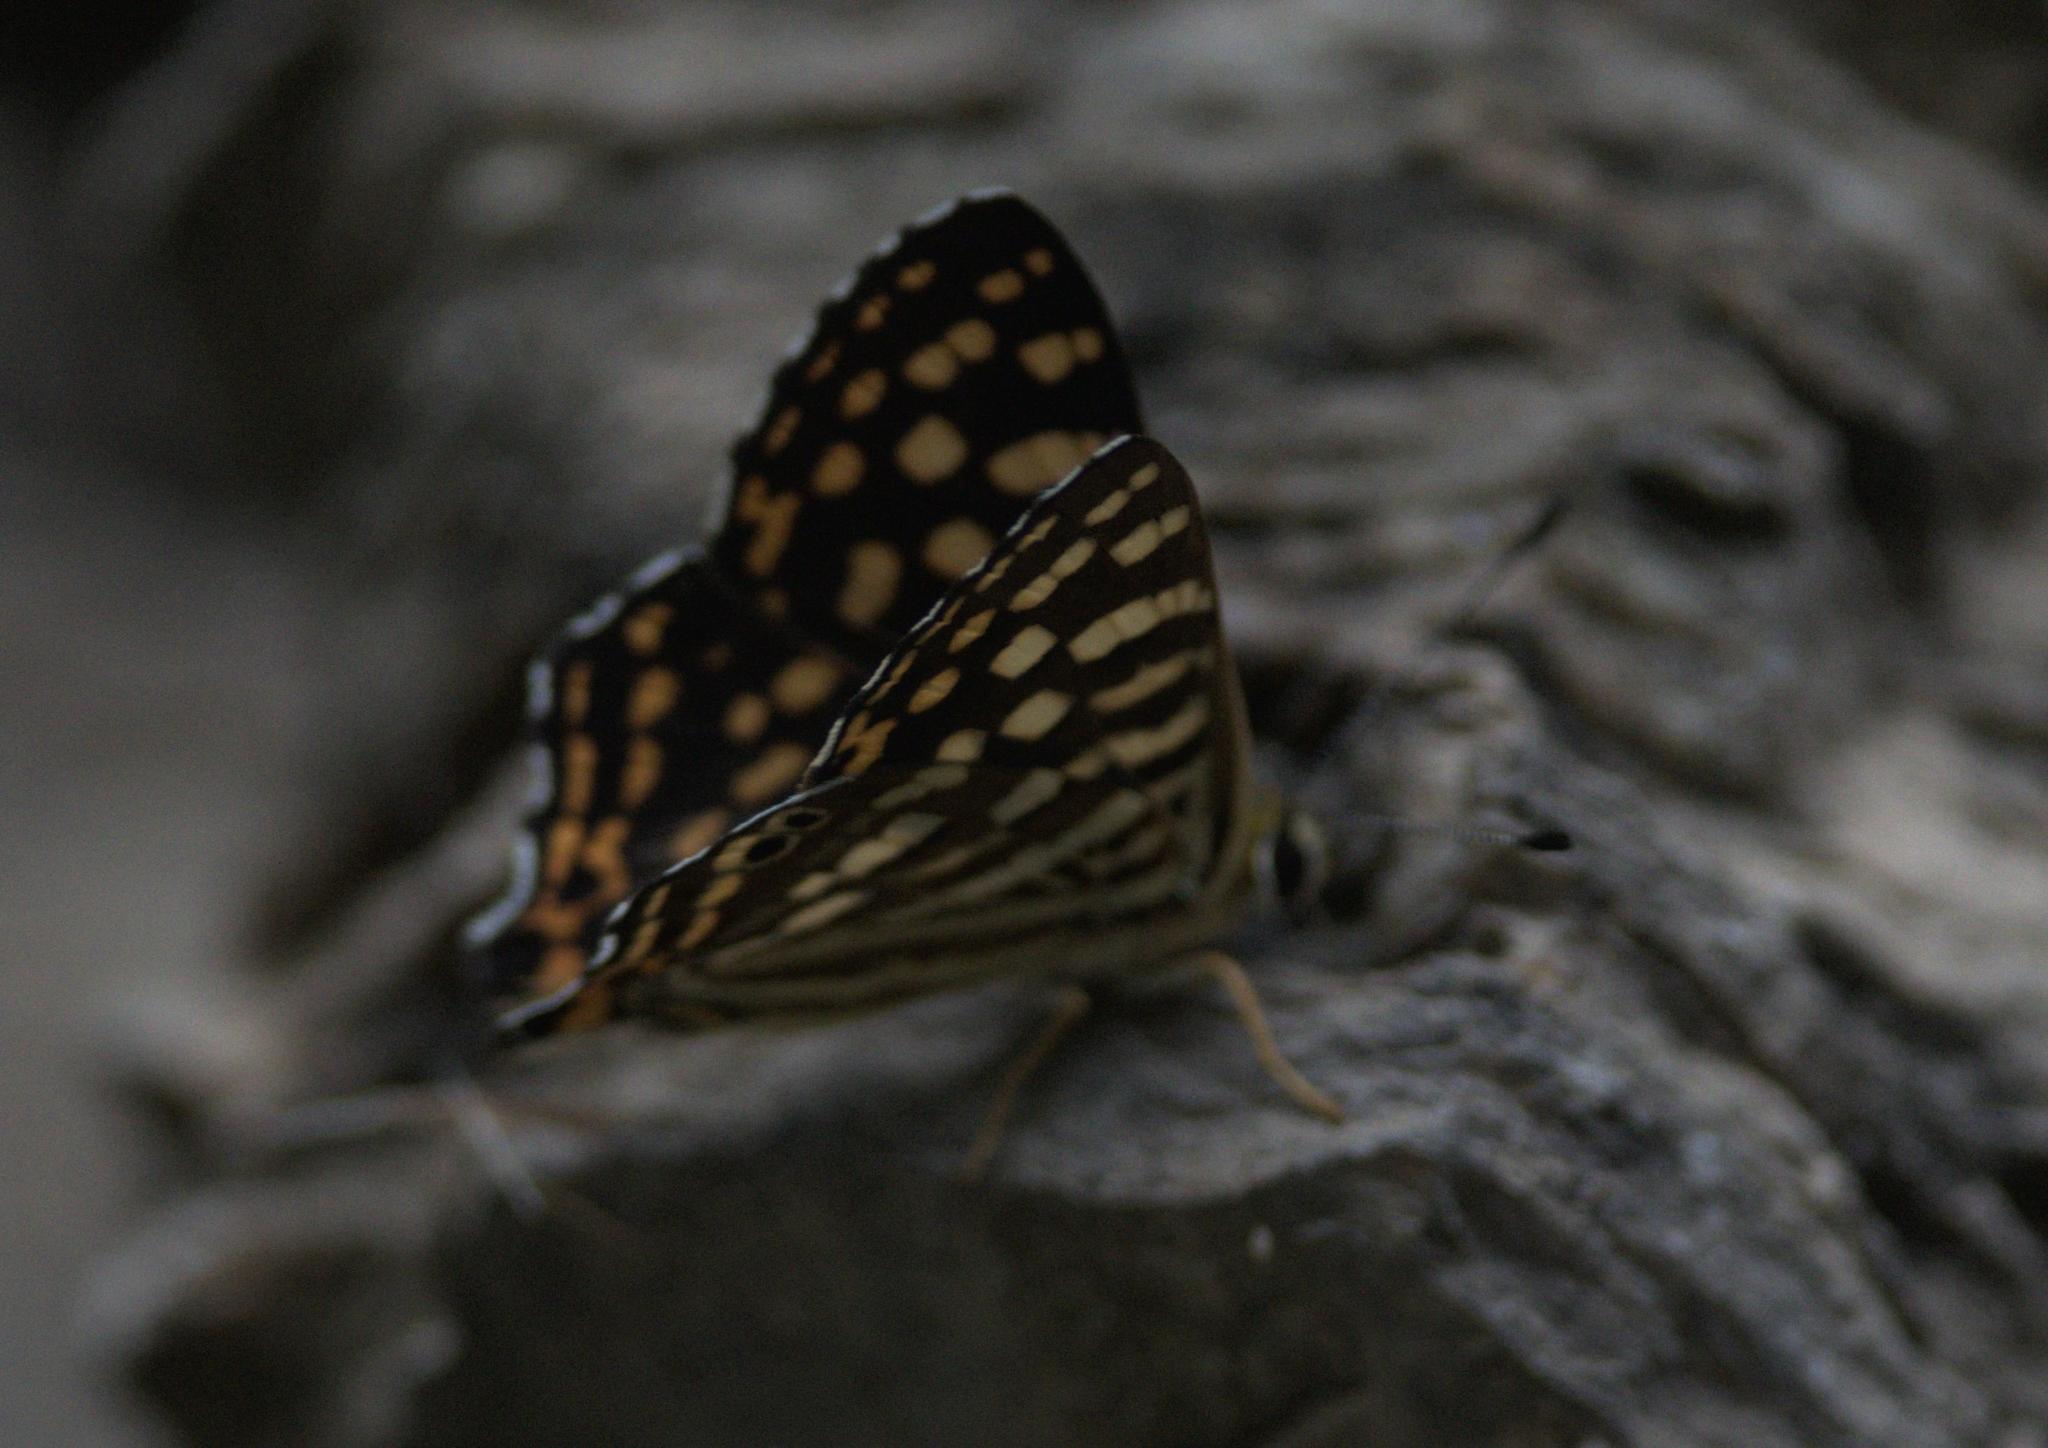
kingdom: Animalia
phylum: Arthropoda
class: Insecta
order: Lepidoptera
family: Lycaenidae
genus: Dodona
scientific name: Dodona durga
